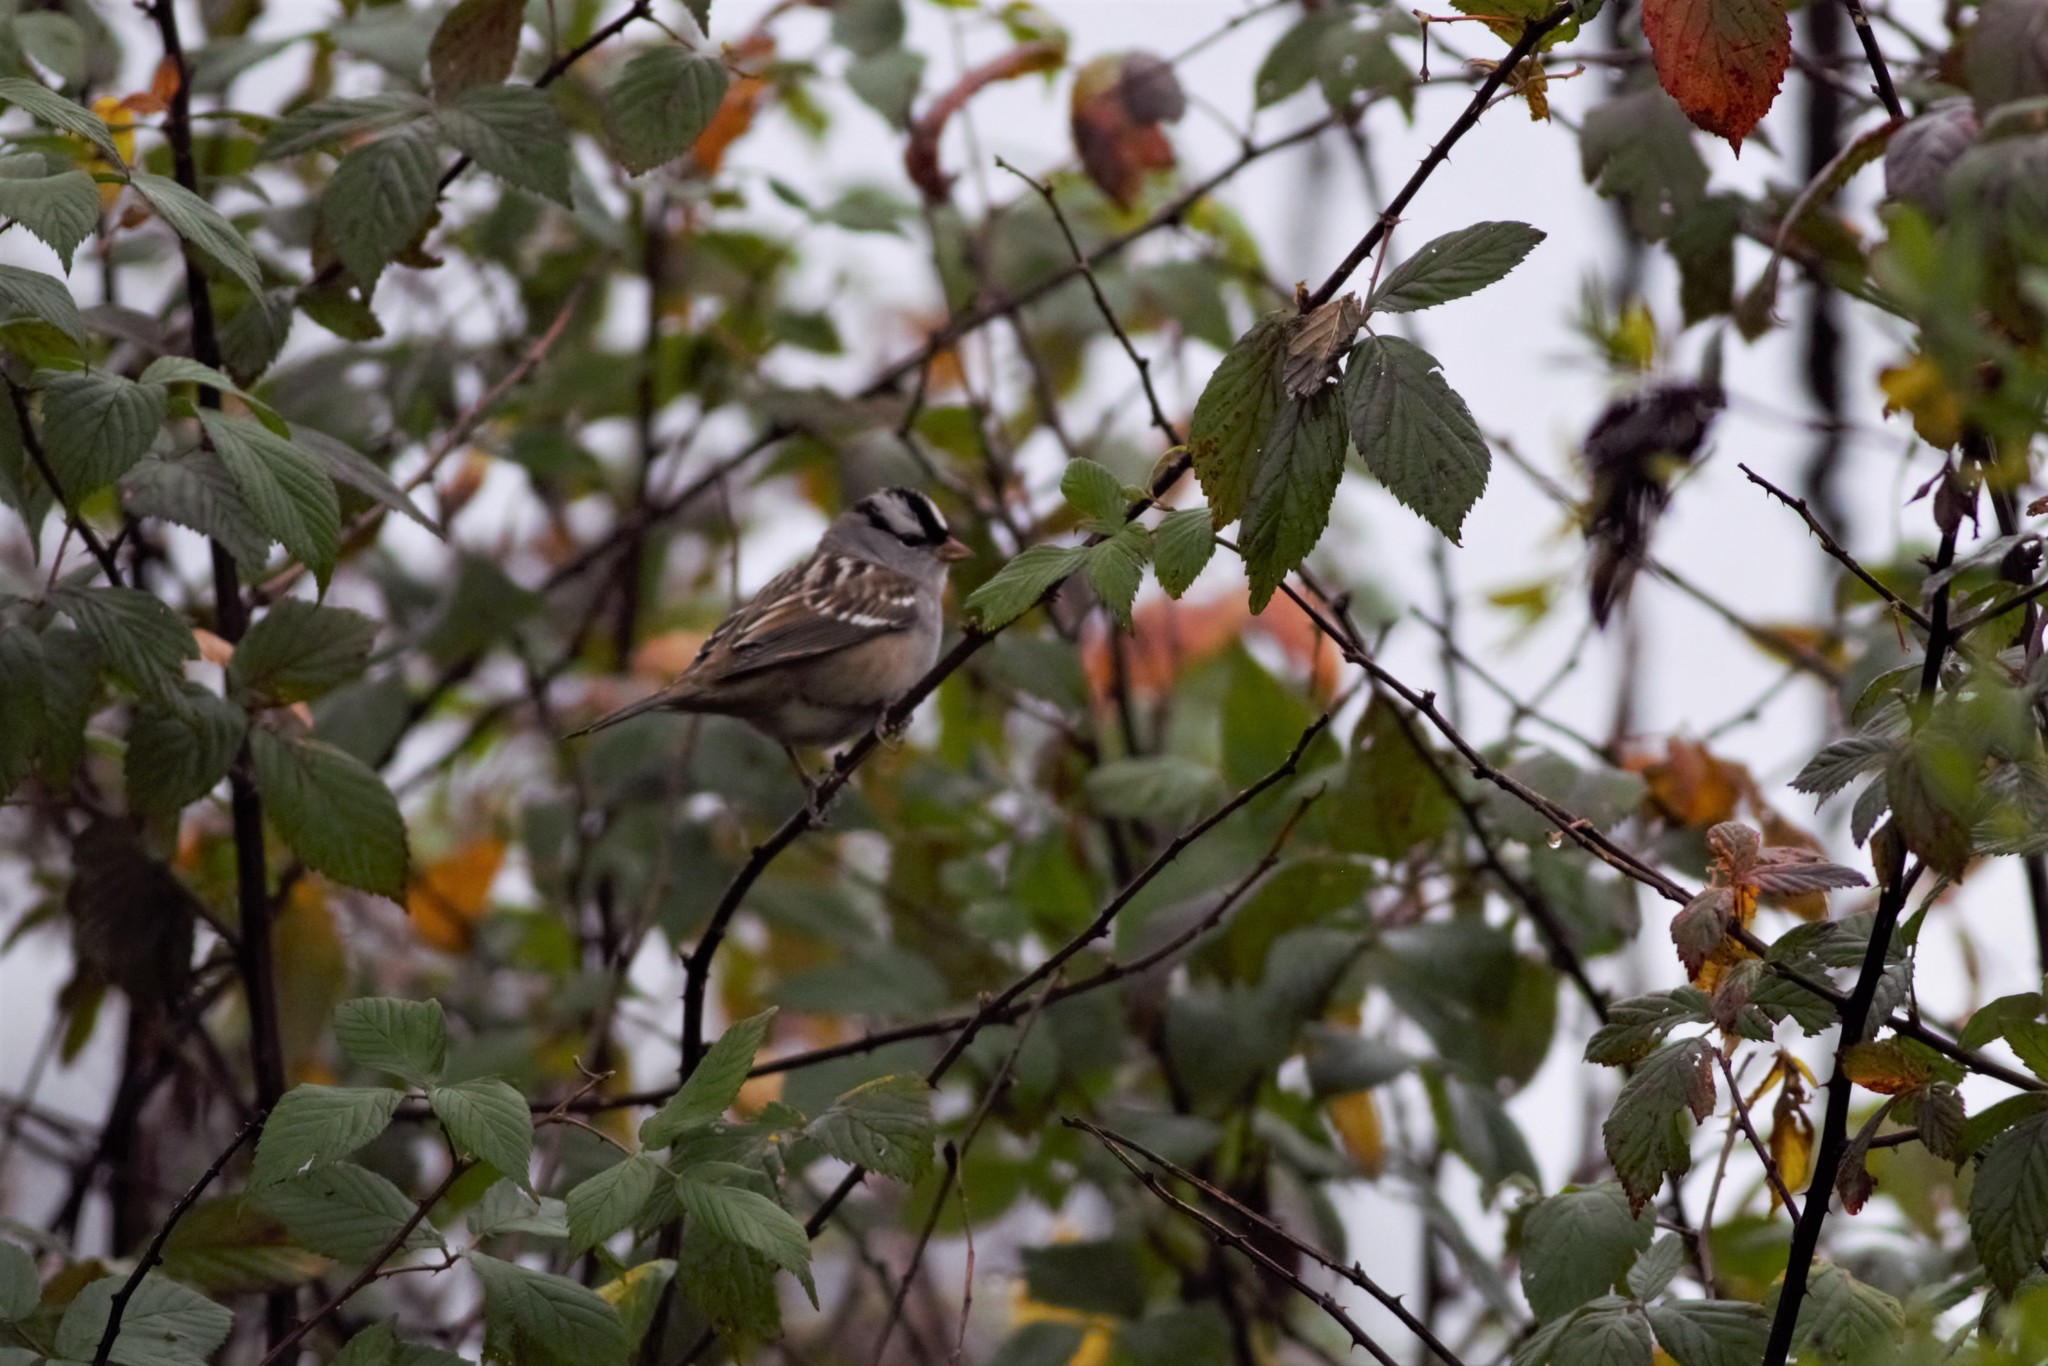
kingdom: Animalia
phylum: Chordata
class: Aves
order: Passeriformes
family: Passerellidae
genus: Zonotrichia
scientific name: Zonotrichia leucophrys
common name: White-crowned sparrow
